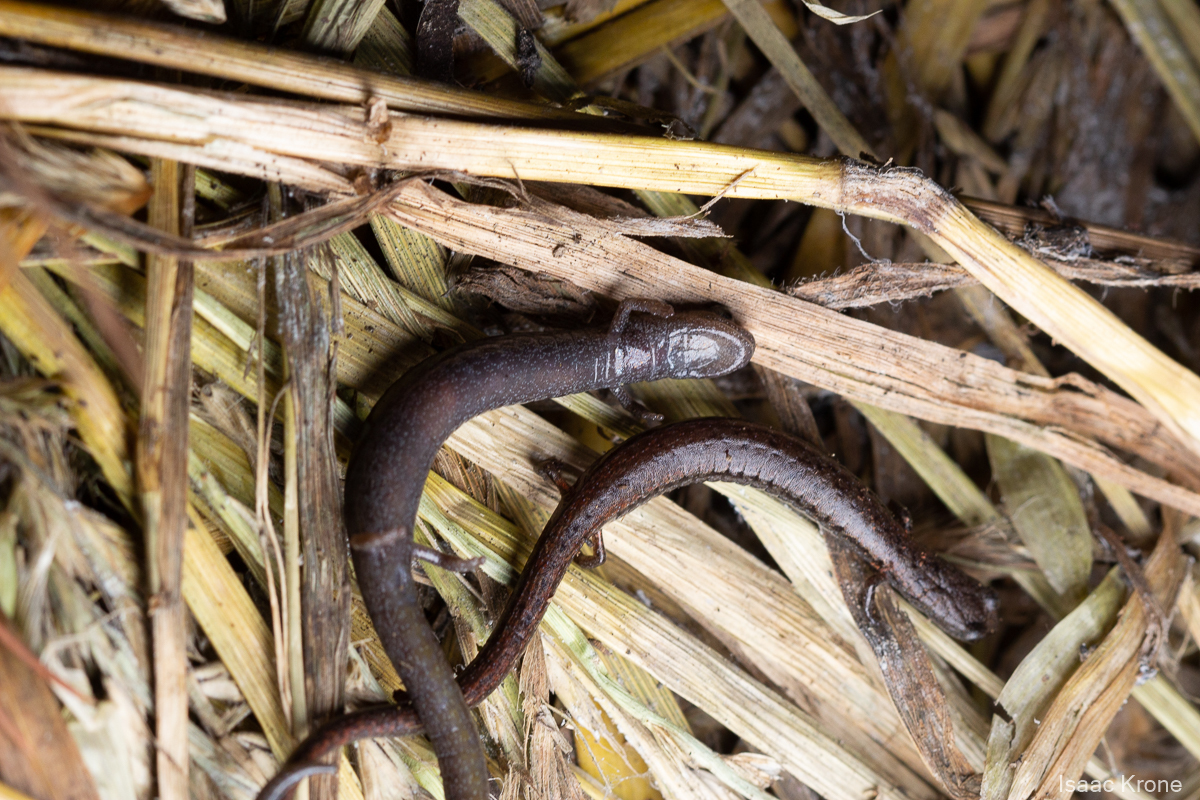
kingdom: Animalia
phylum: Chordata
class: Amphibia
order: Caudata
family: Plethodontidae
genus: Batrachoseps
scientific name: Batrachoseps attenuatus
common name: California slender salamander
